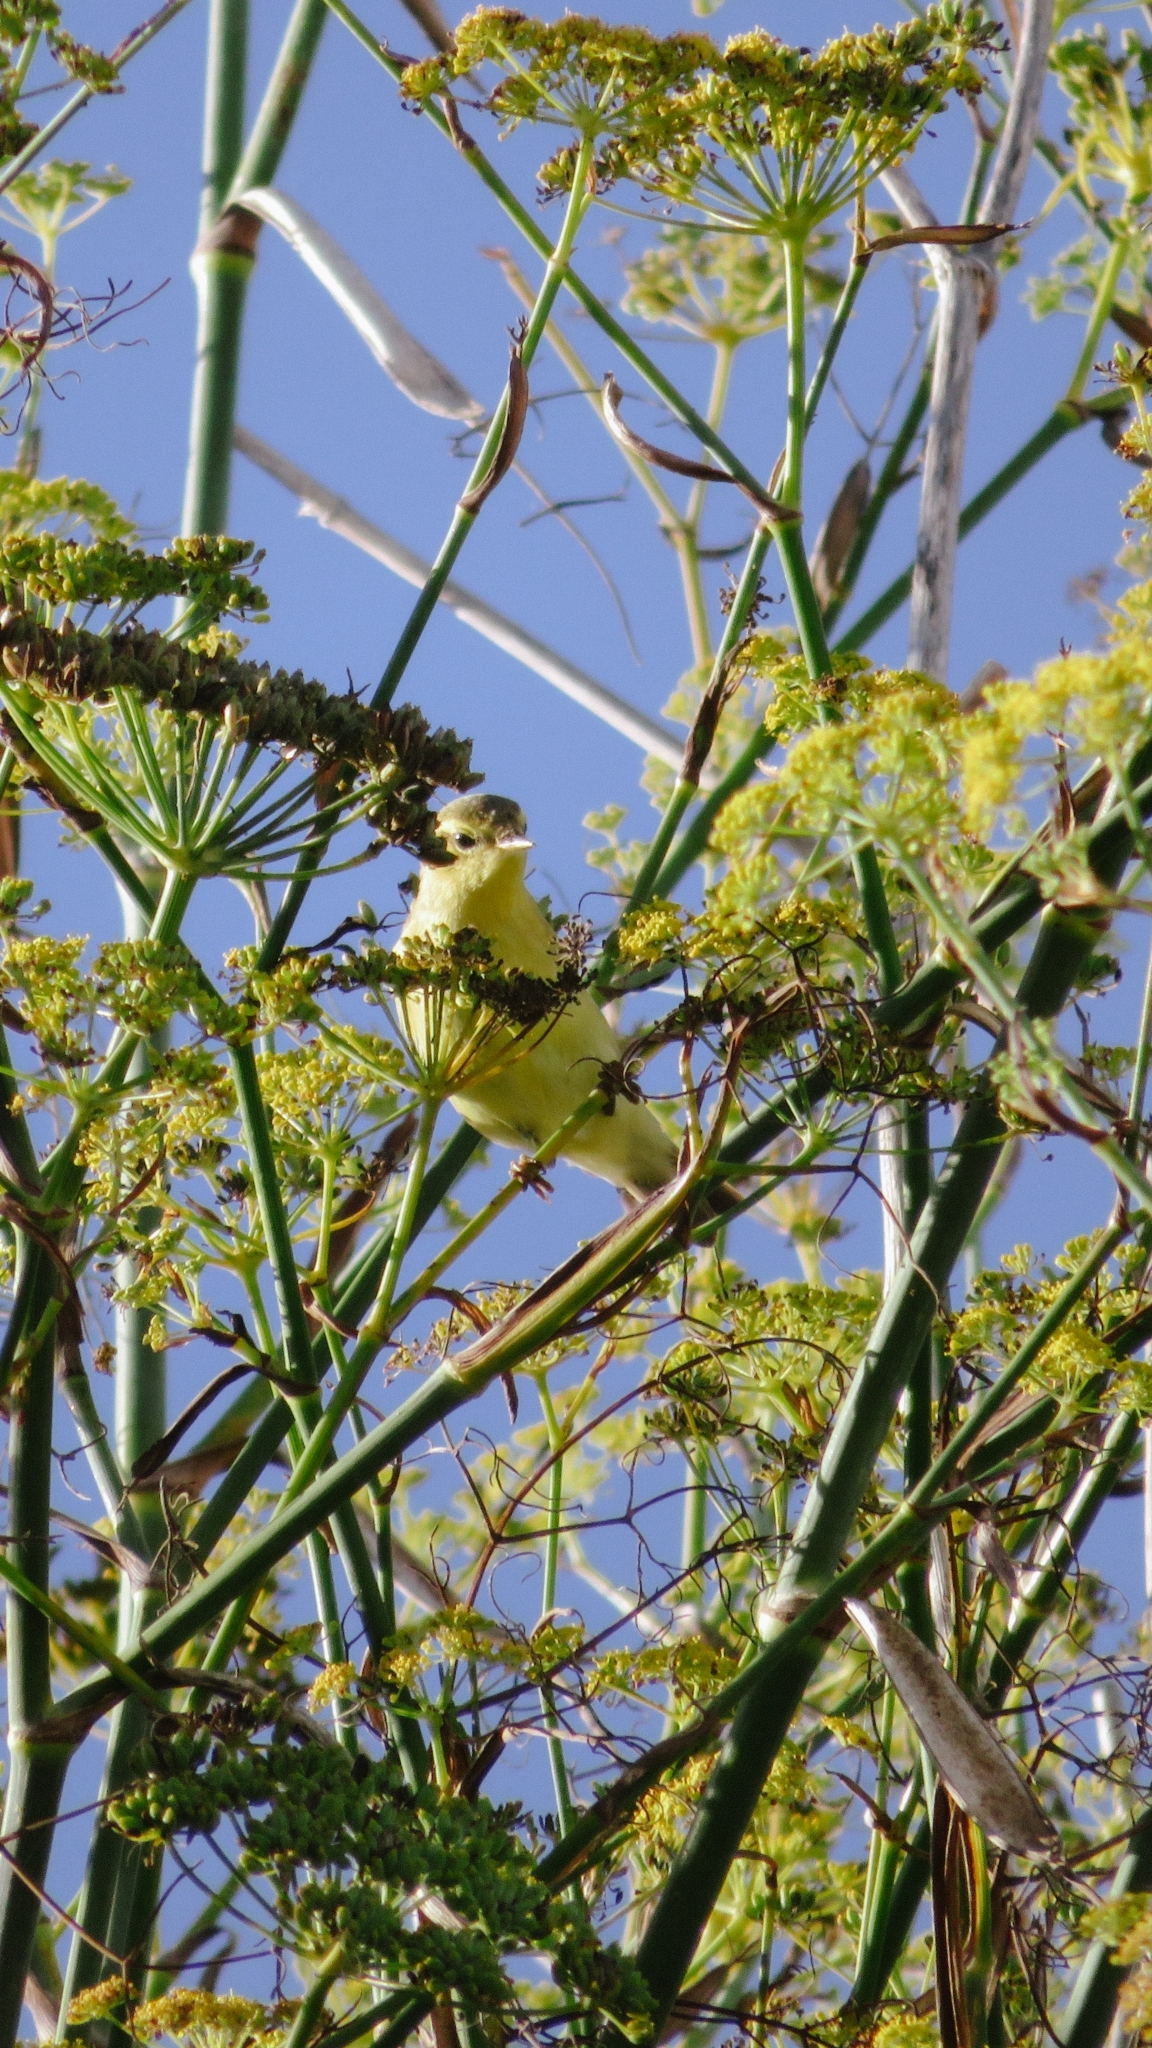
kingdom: Animalia
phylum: Chordata
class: Aves
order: Passeriformes
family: Phylloscopidae
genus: Phylloscopus
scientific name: Phylloscopus trochilus
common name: Willow warbler
